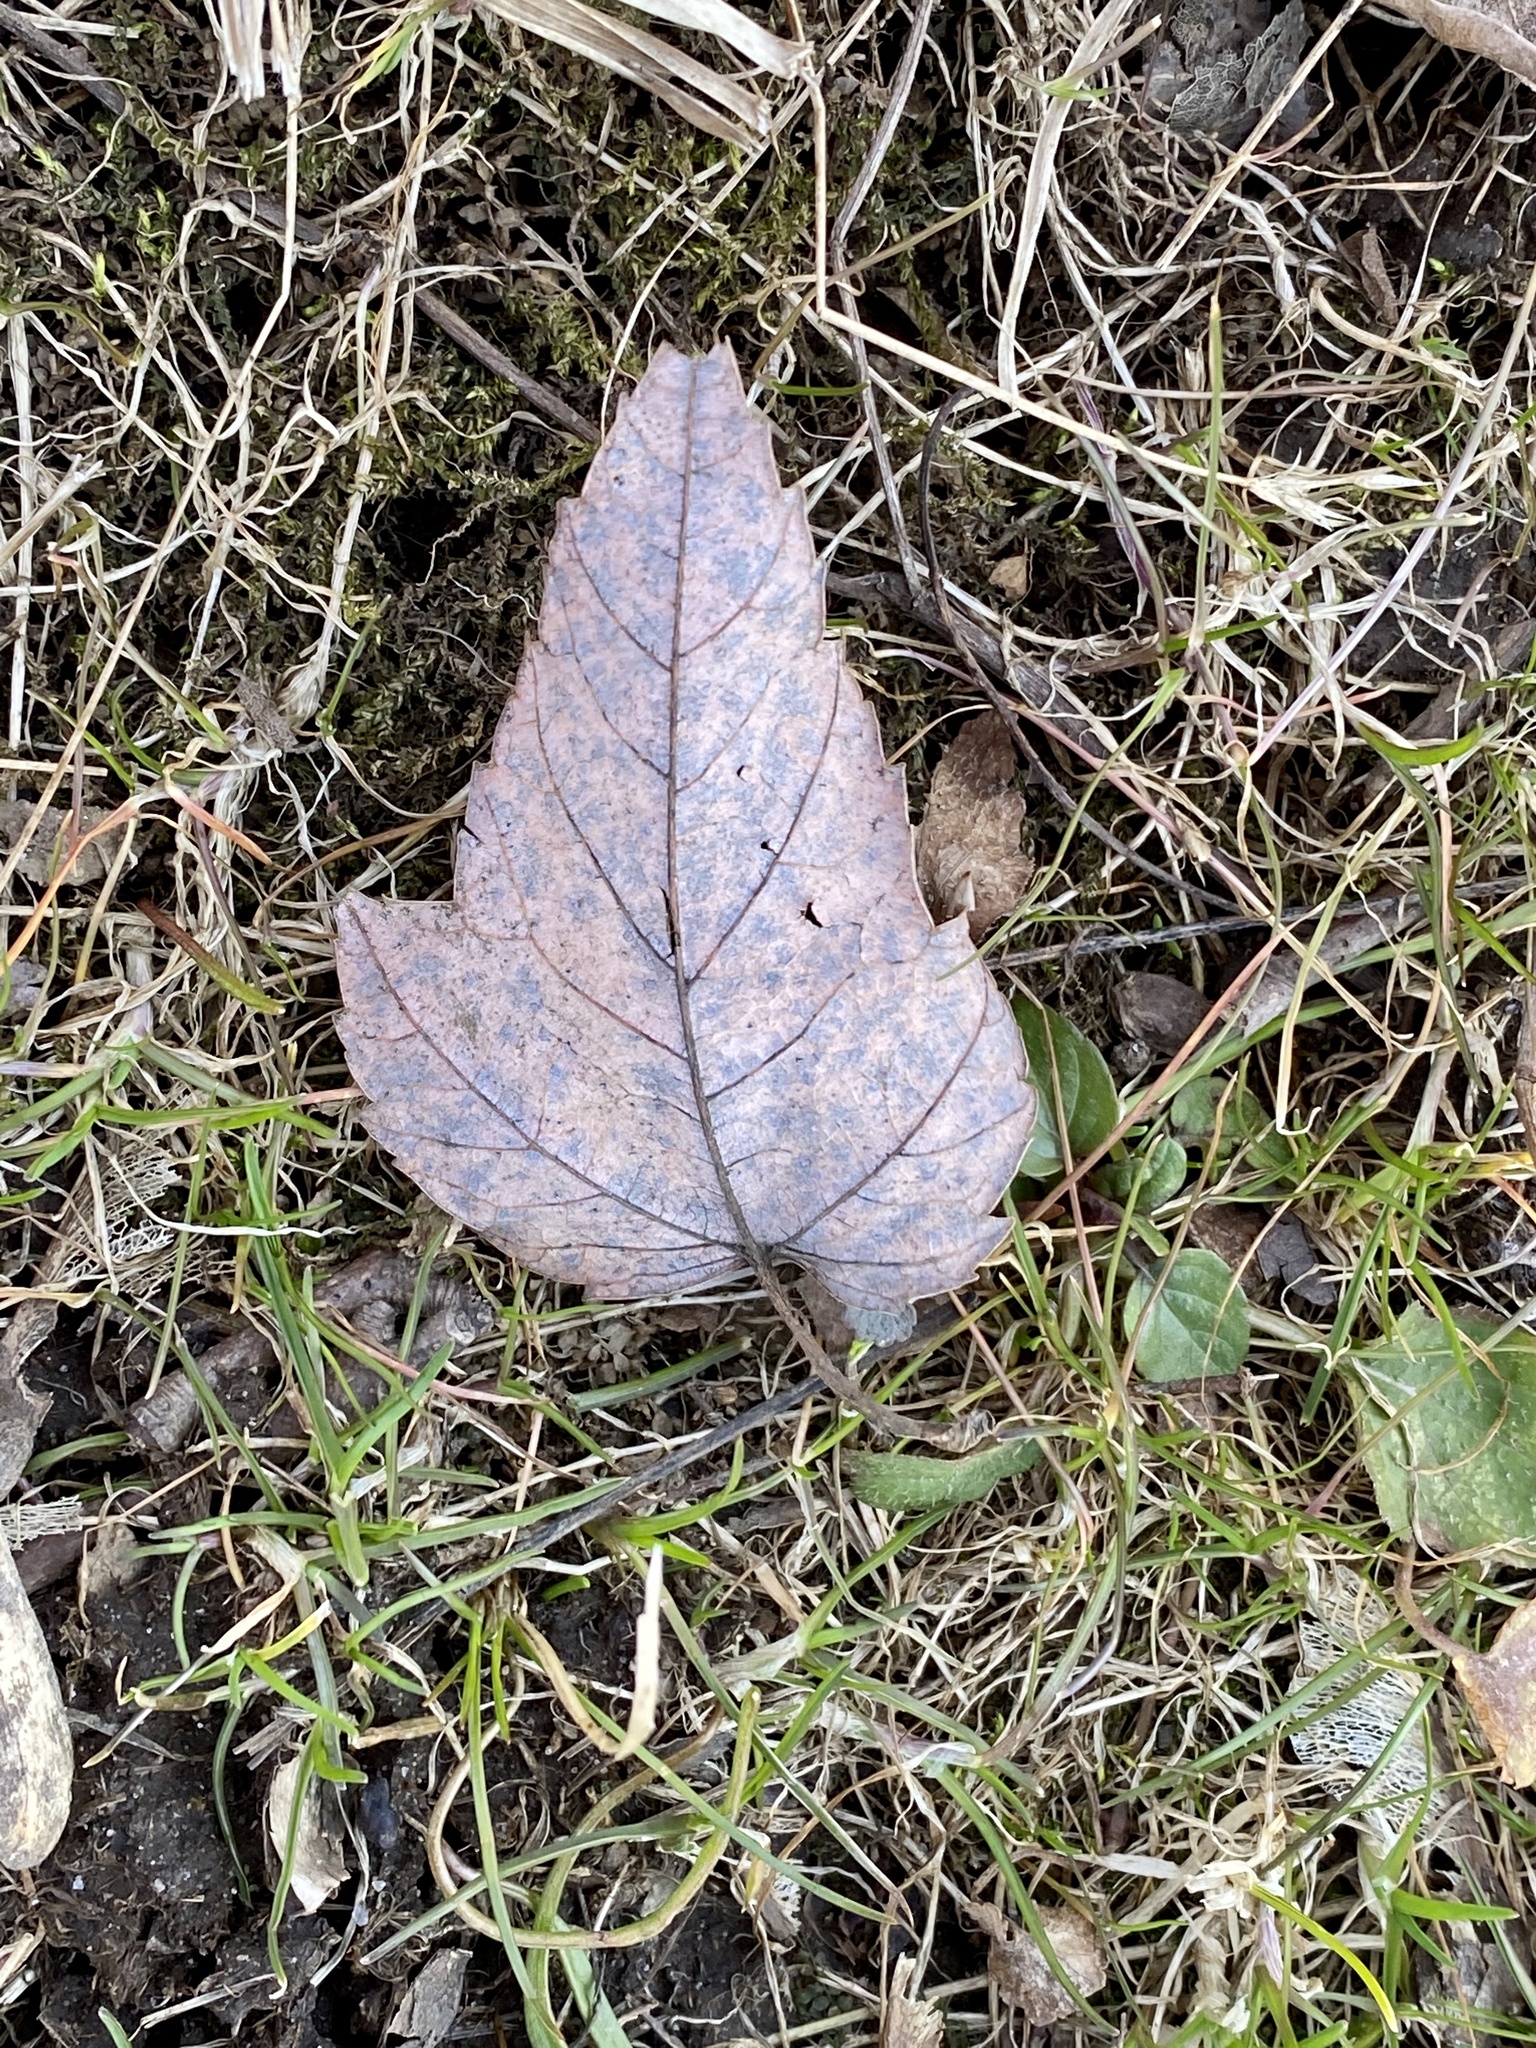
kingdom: Plantae
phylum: Tracheophyta
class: Magnoliopsida
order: Sapindales
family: Sapindaceae
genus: Acer
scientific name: Acer rubrum
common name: Red maple
